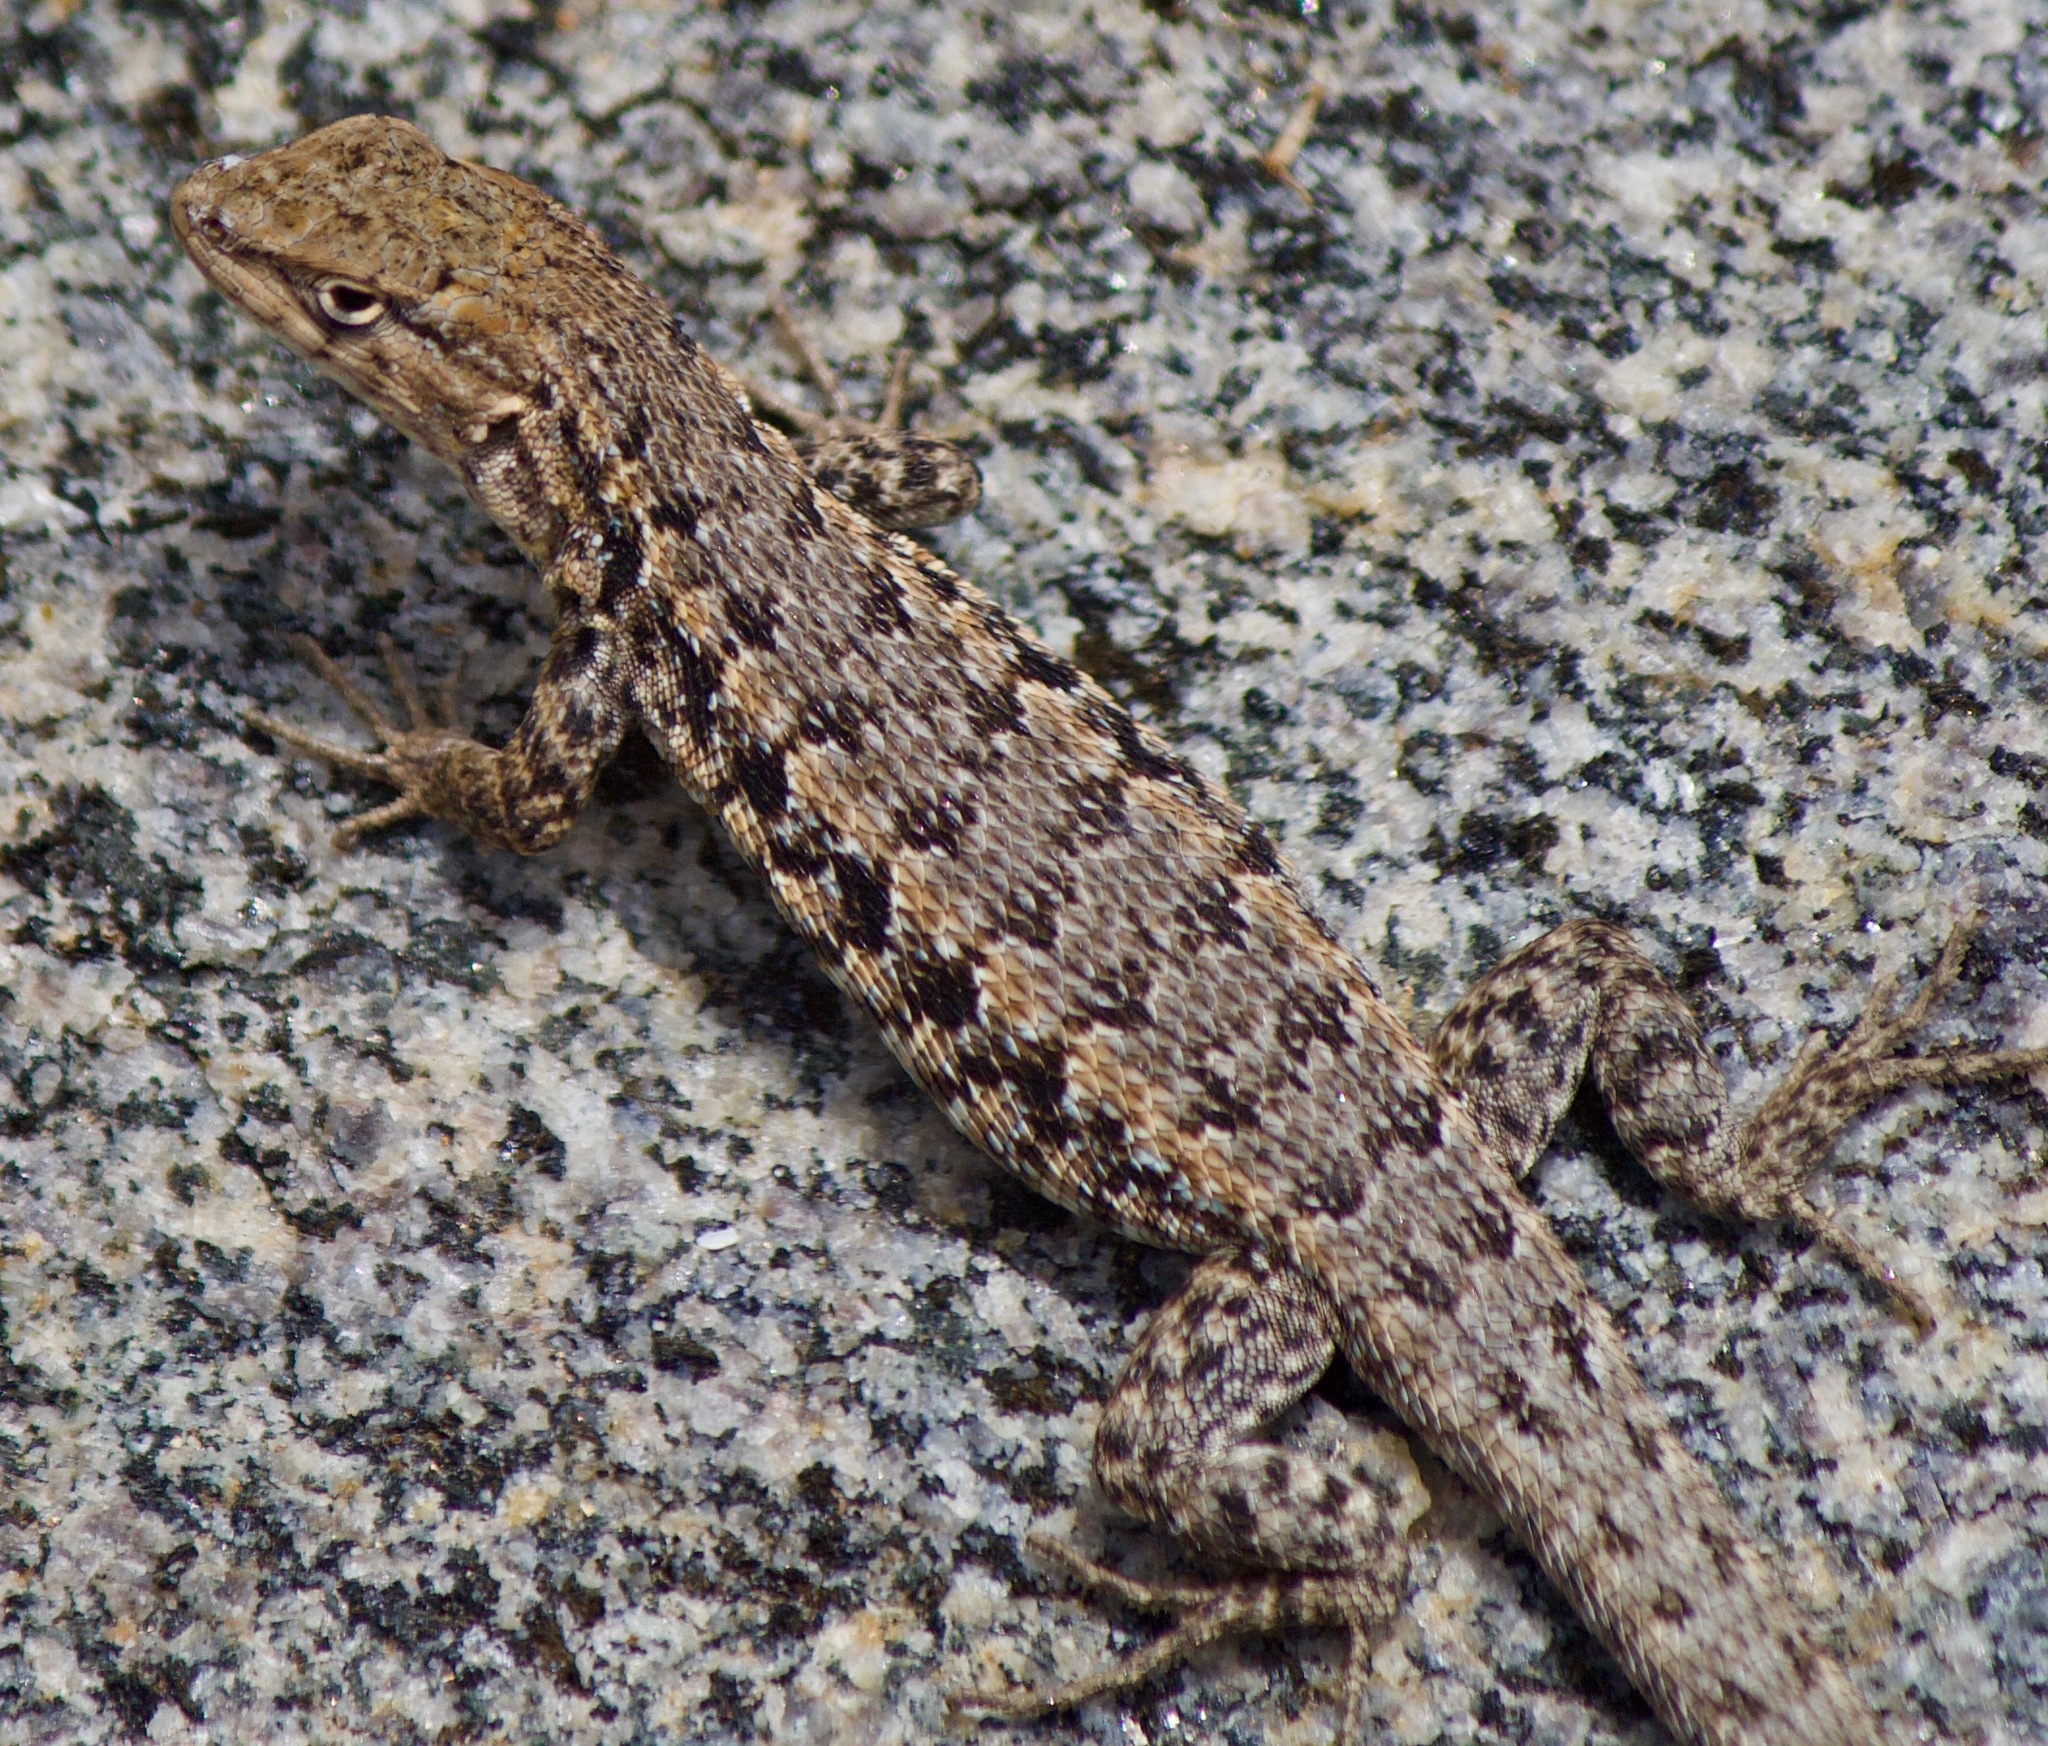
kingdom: Animalia
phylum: Chordata
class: Squamata
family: Liolaemidae
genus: Liolaemus
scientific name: Liolaemus platei
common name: Braided tree iguana
